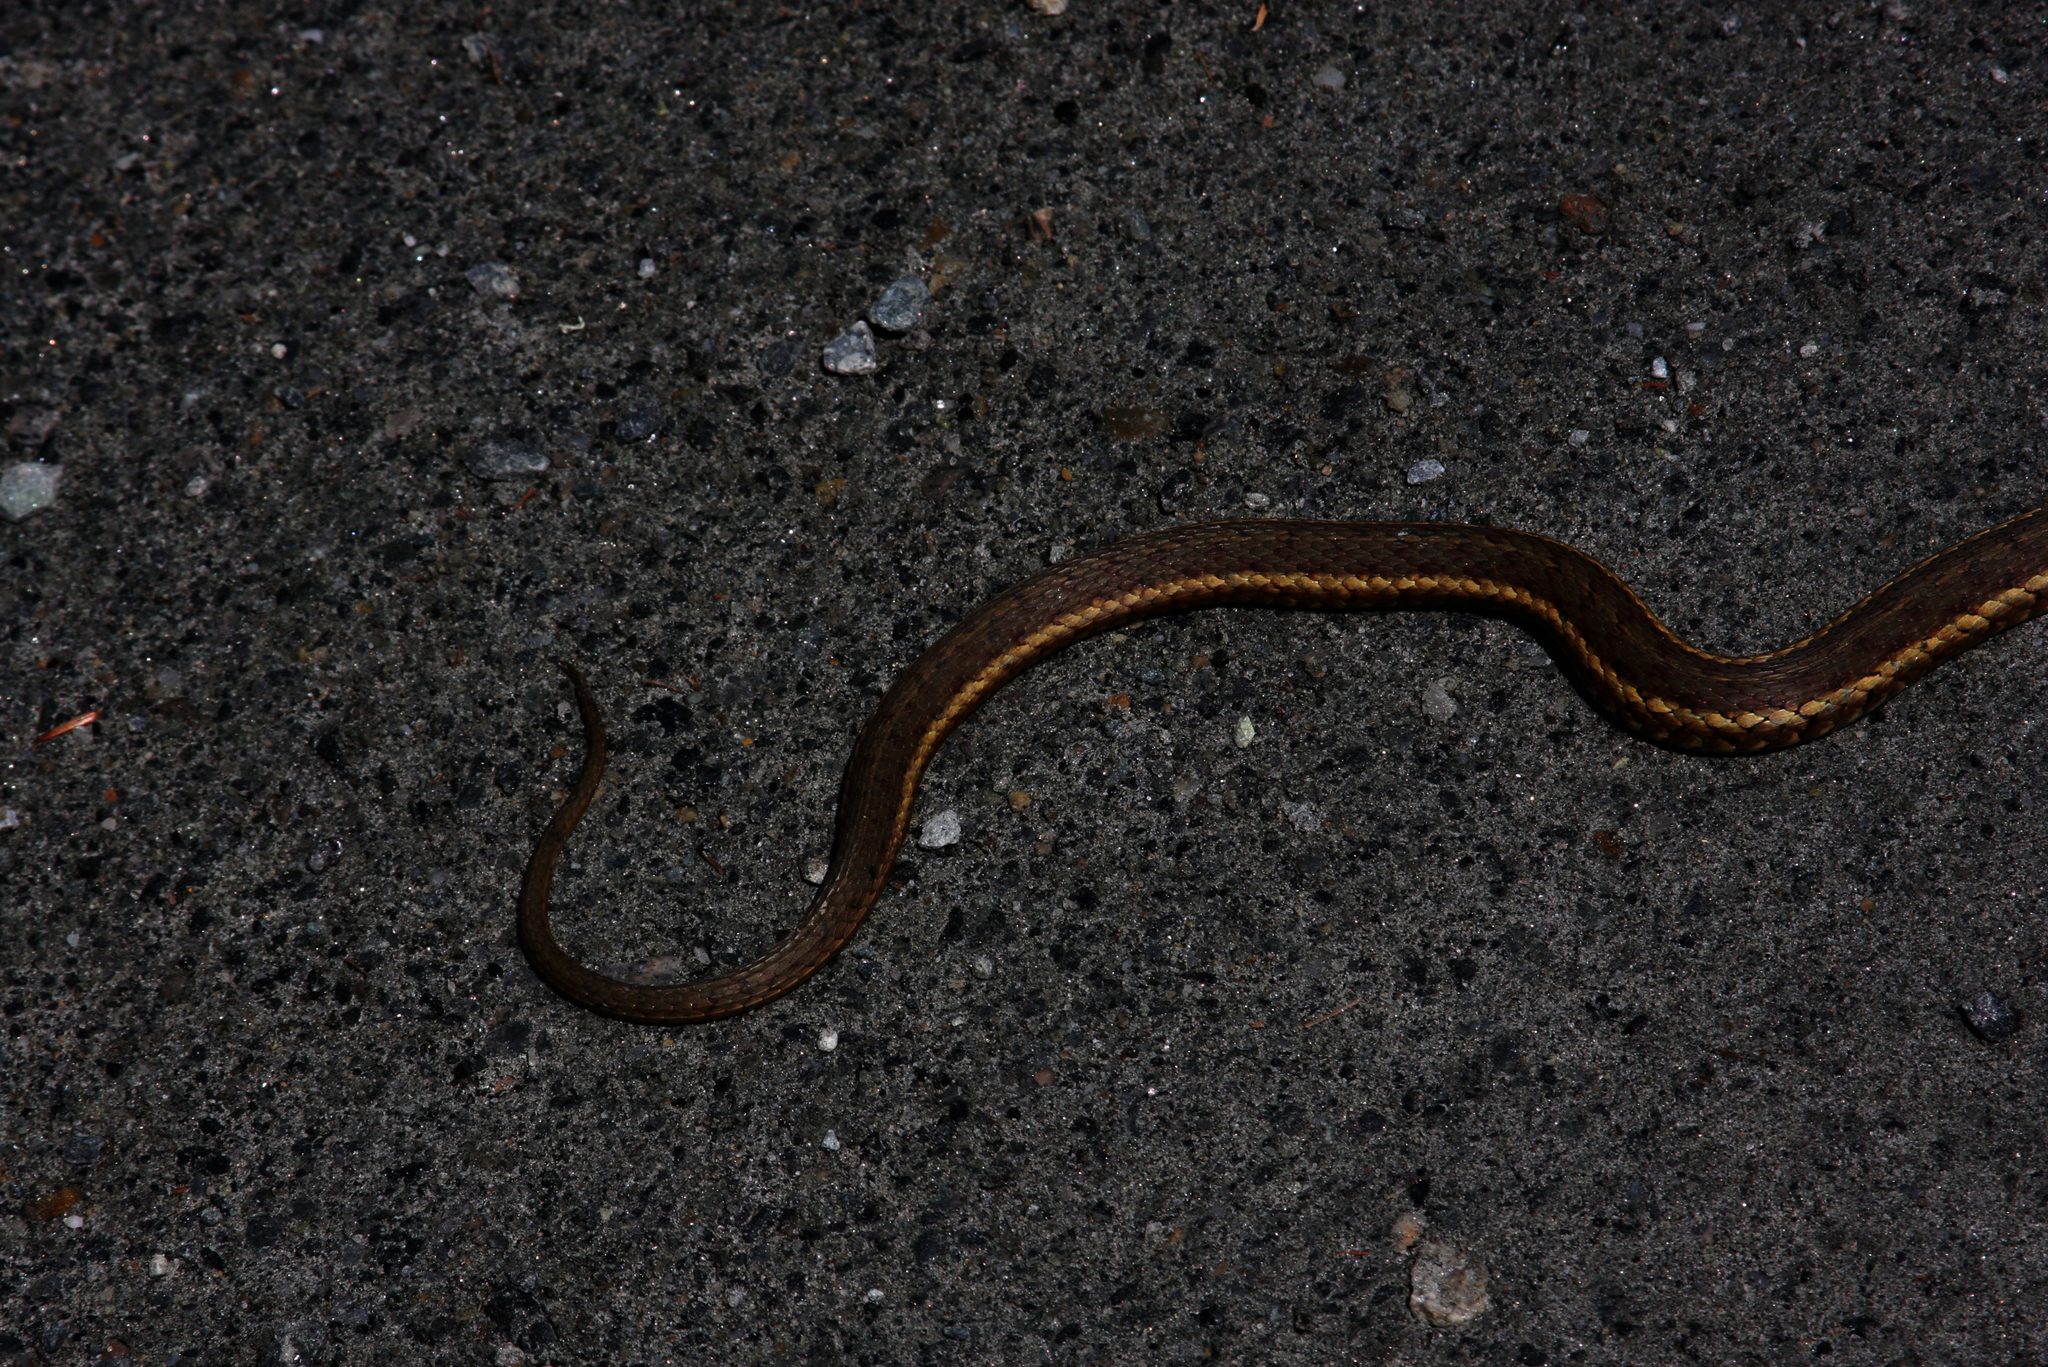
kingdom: Animalia
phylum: Chordata
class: Squamata
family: Colubridae
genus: Thamnophis
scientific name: Thamnophis sirtalis
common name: Common garter snake
